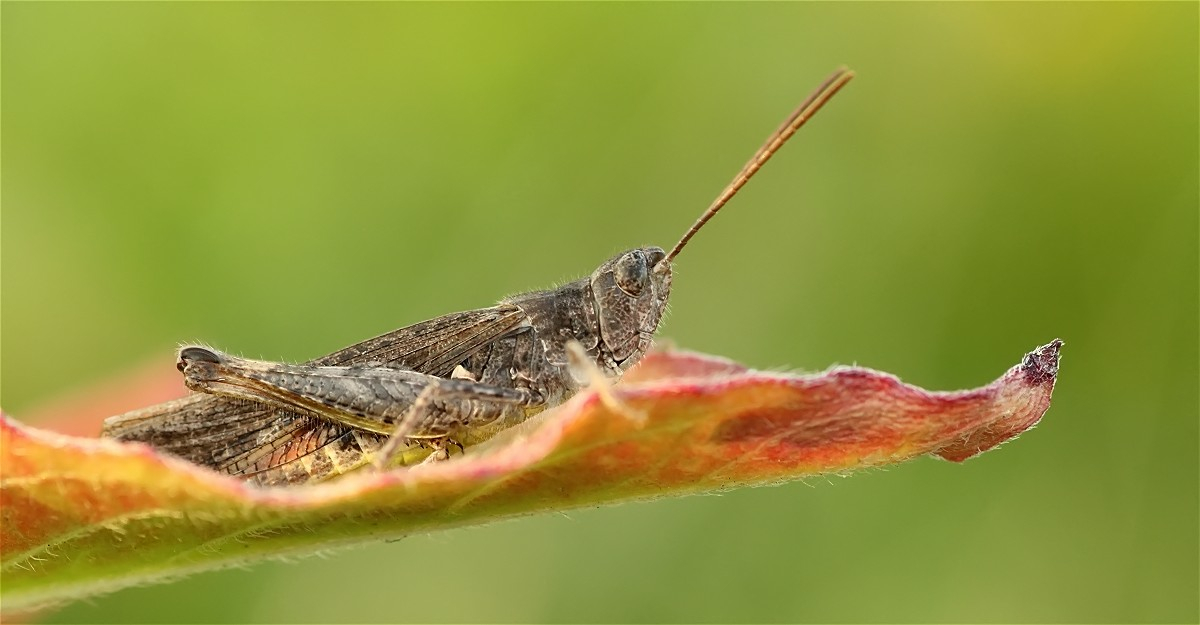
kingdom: Animalia
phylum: Arthropoda
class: Insecta
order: Orthoptera
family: Acrididae
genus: Chorthippus
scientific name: Chorthippus brunneus
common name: Field grasshopper
